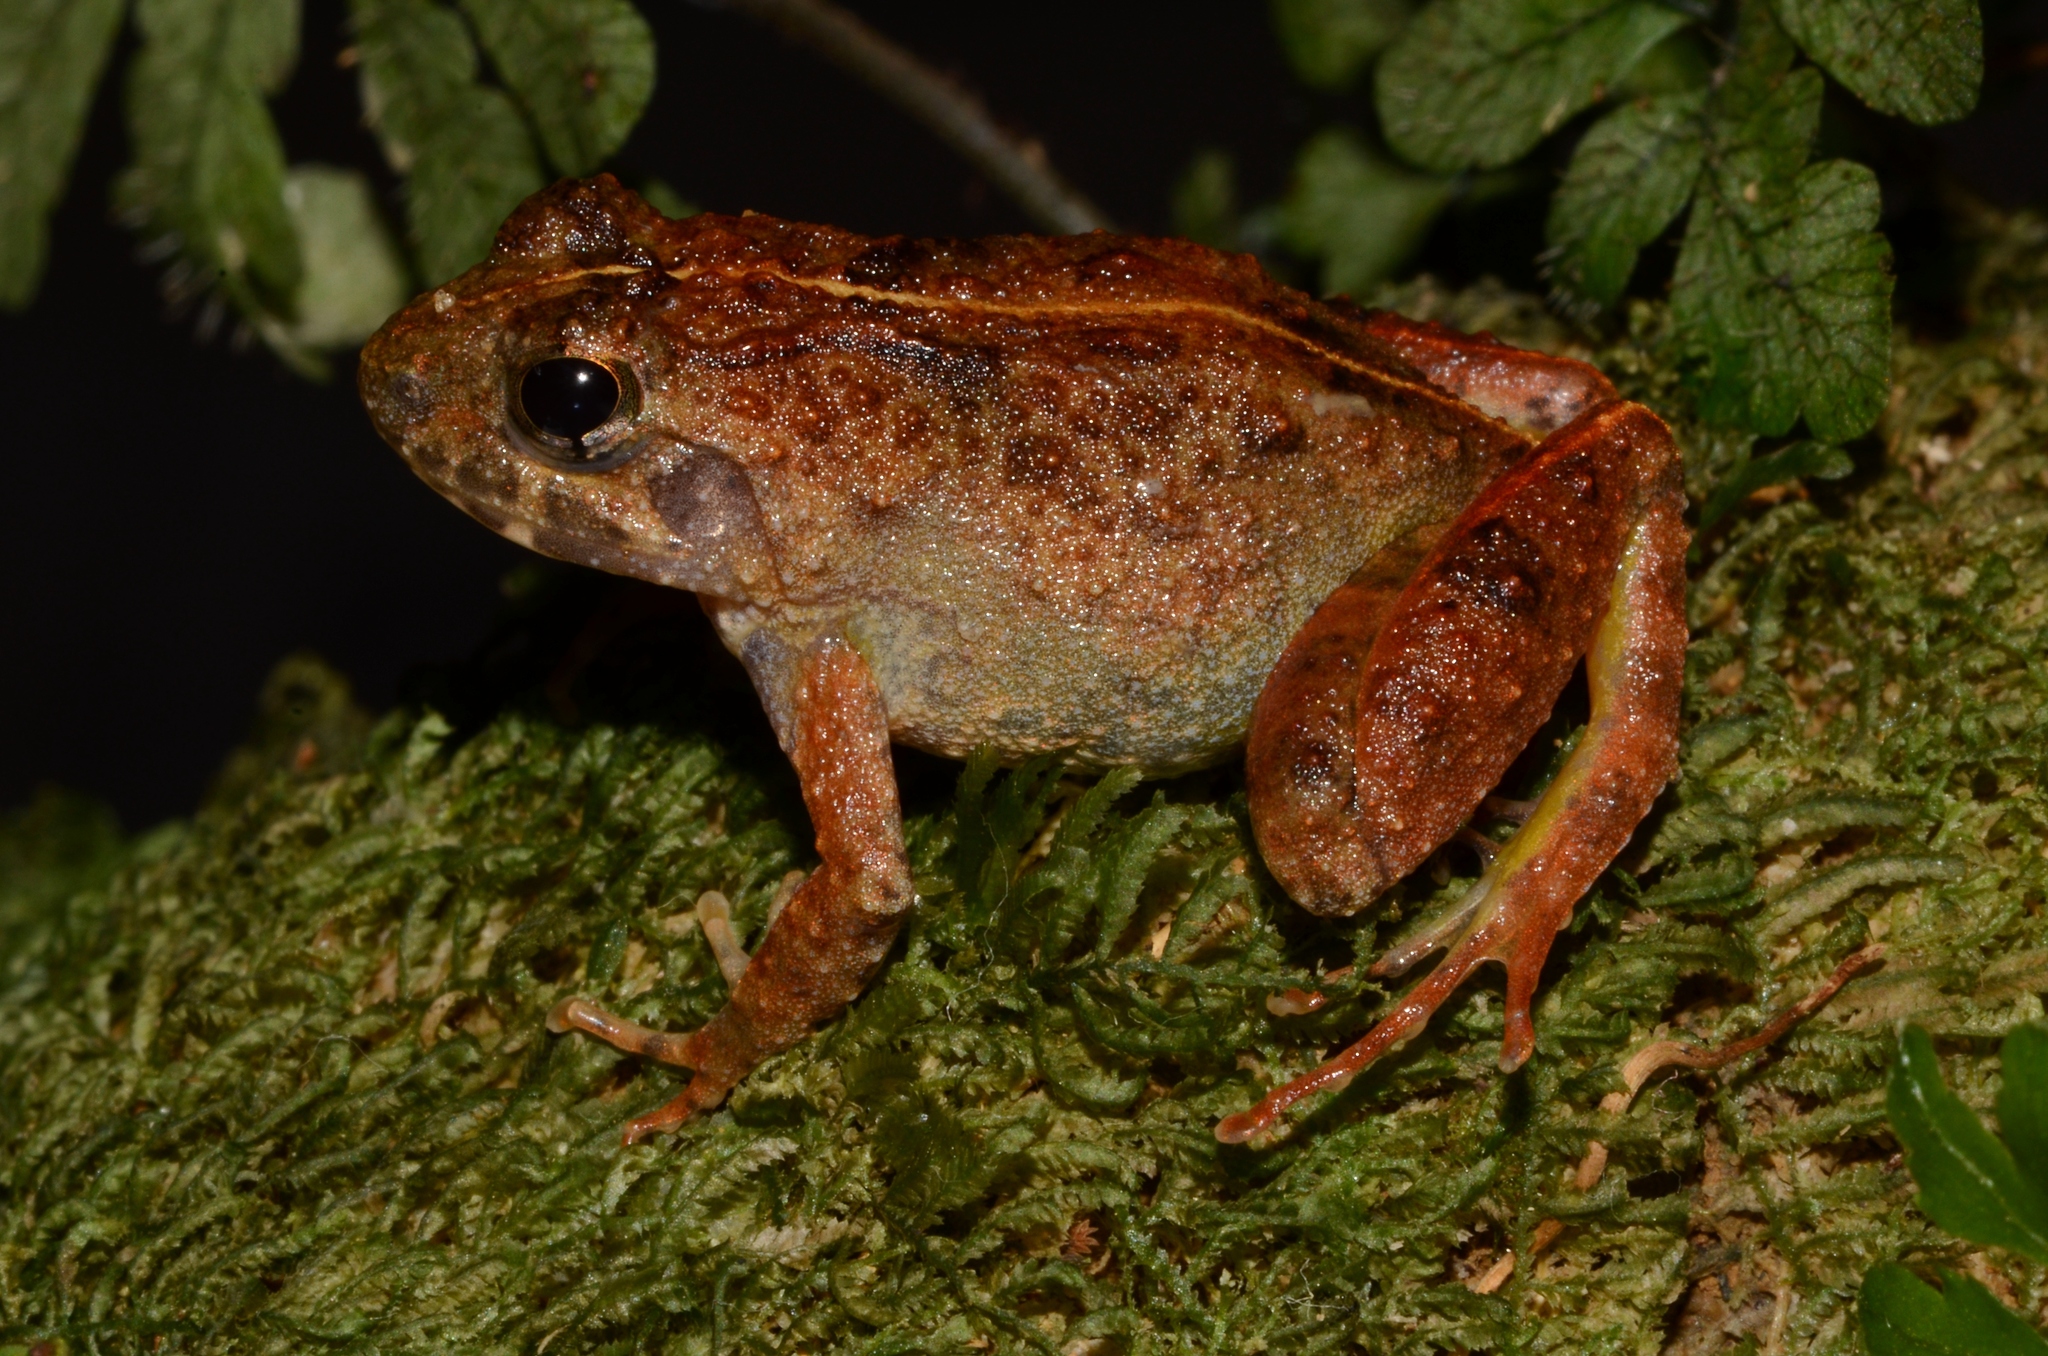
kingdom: Animalia
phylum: Chordata
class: Amphibia
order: Anura
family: Phrynobatrachidae
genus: Phrynobatrachus
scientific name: Phrynobatrachus africanus
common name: African swamp frog
